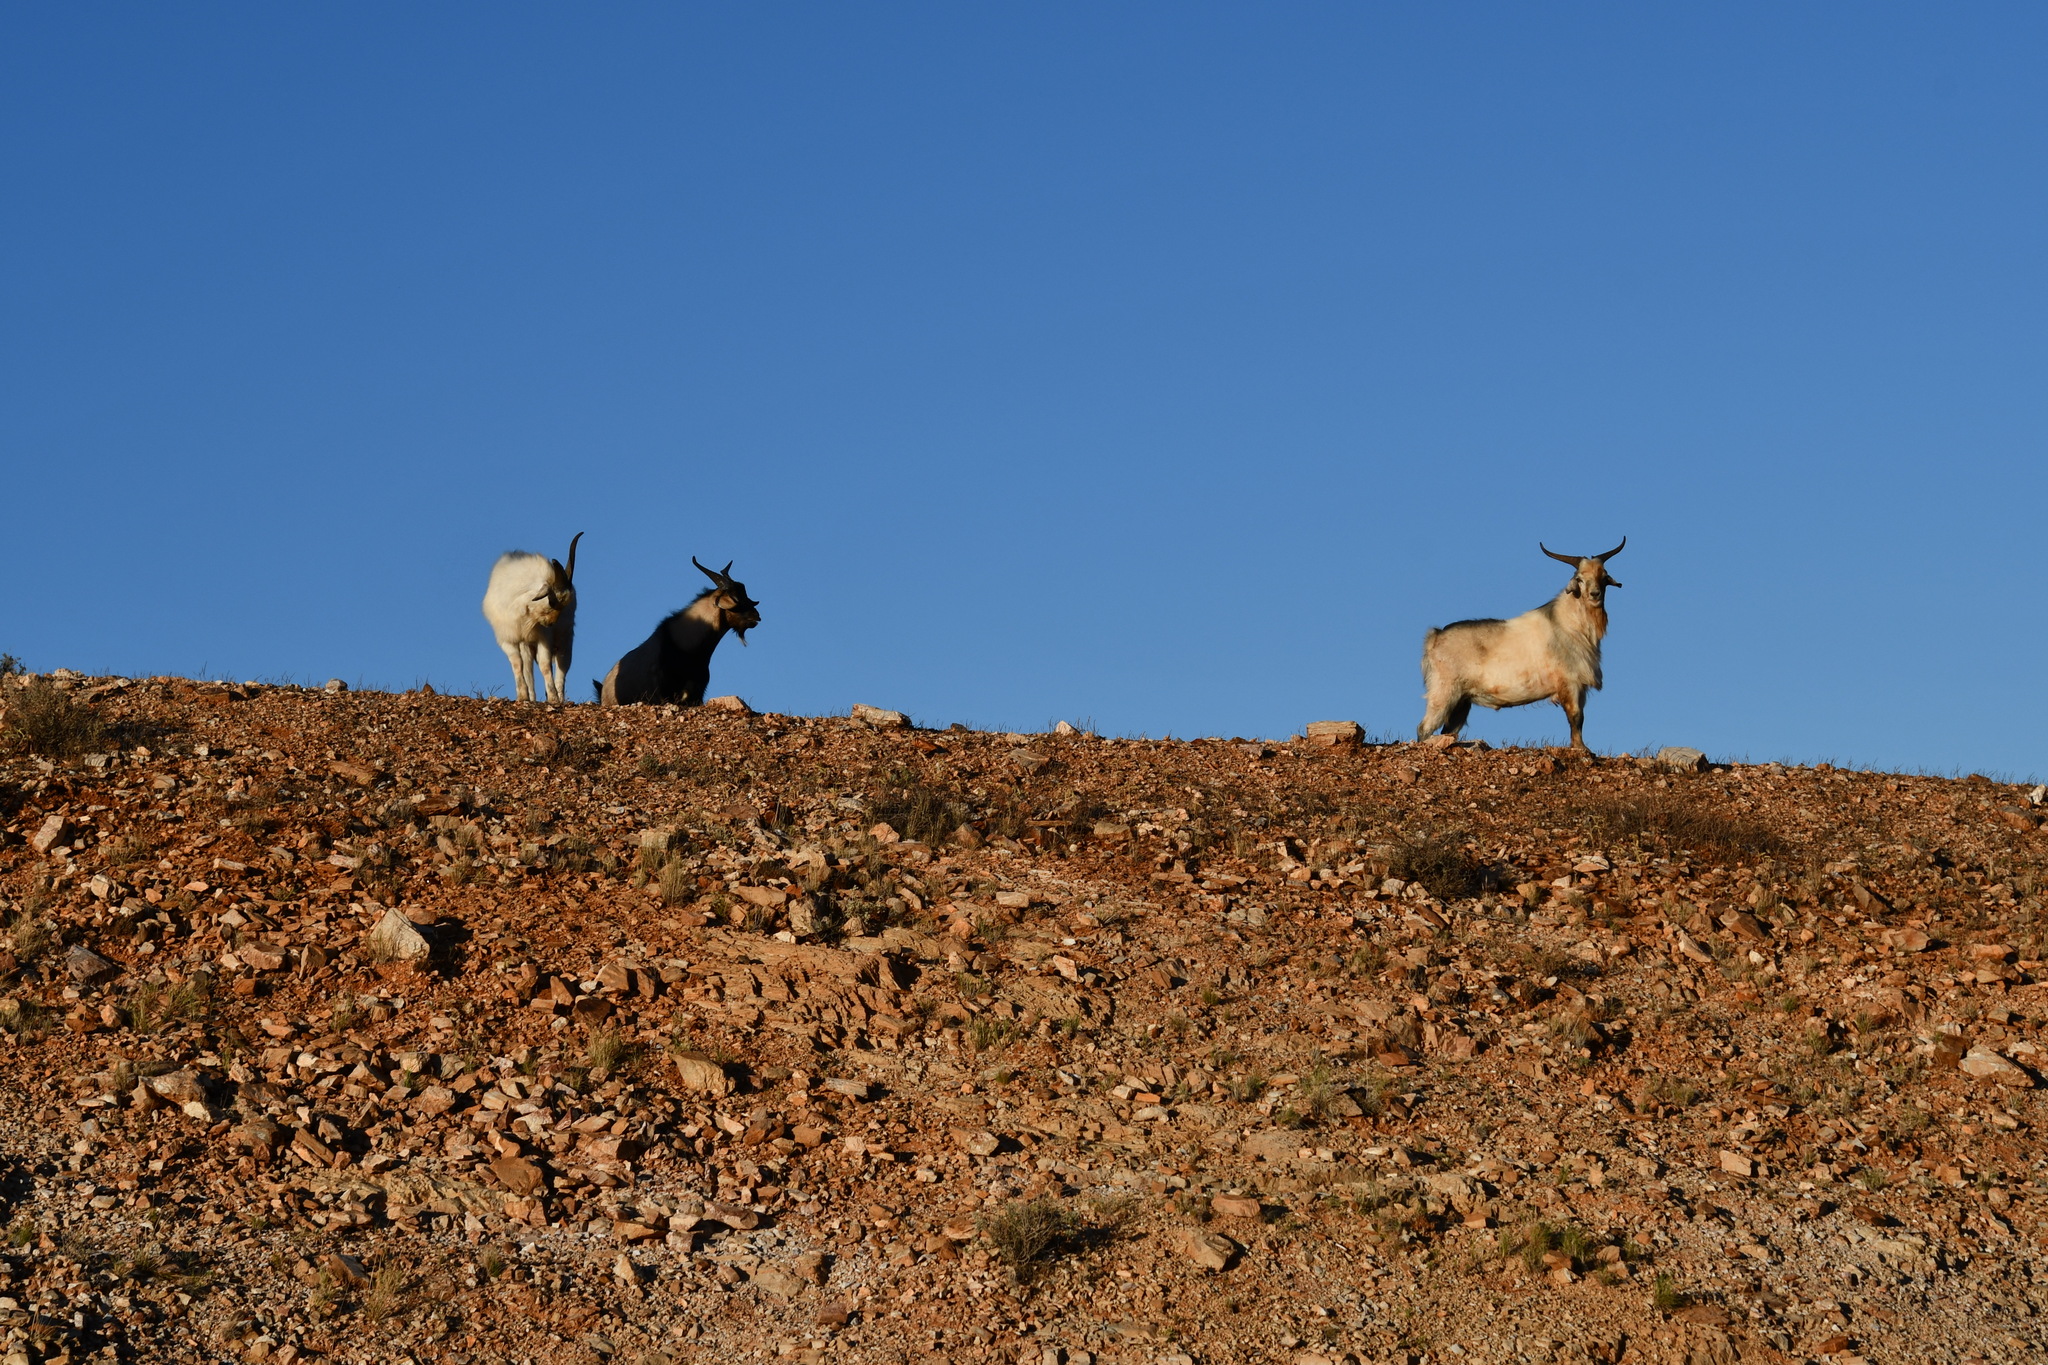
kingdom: Animalia
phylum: Chordata
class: Mammalia
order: Artiodactyla
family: Bovidae
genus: Capra
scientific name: Capra hircus
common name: Domestic goat
